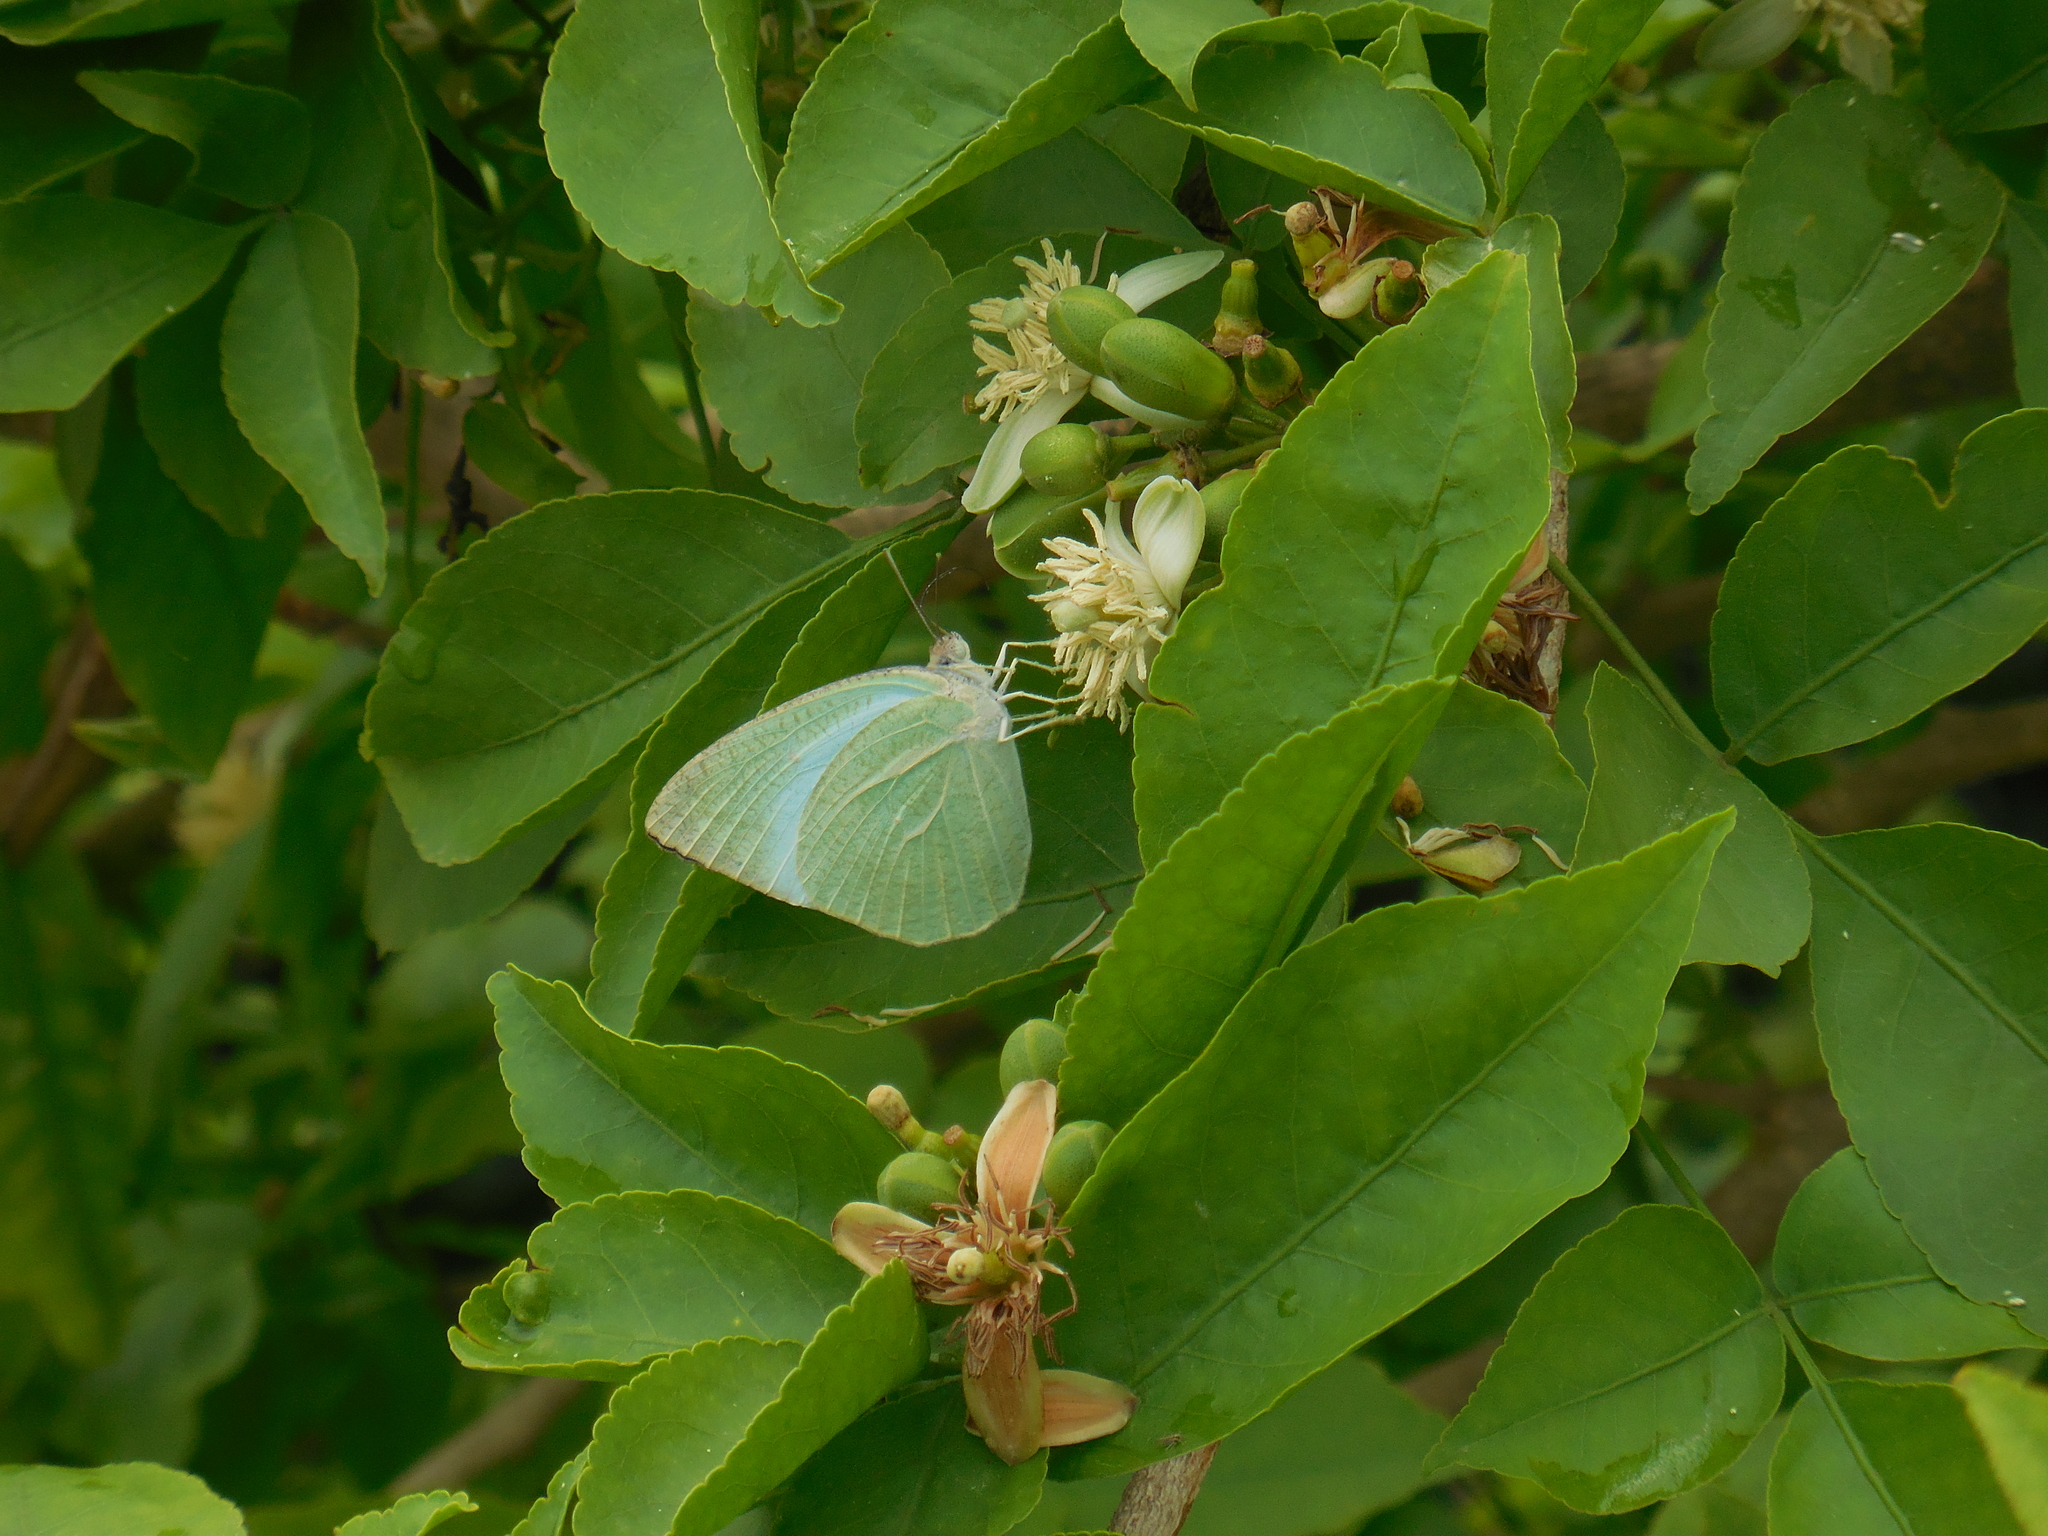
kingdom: Animalia
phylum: Arthropoda
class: Insecta
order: Lepidoptera
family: Pieridae
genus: Catopsilia
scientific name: Catopsilia pyranthe
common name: Mottled emigrant
